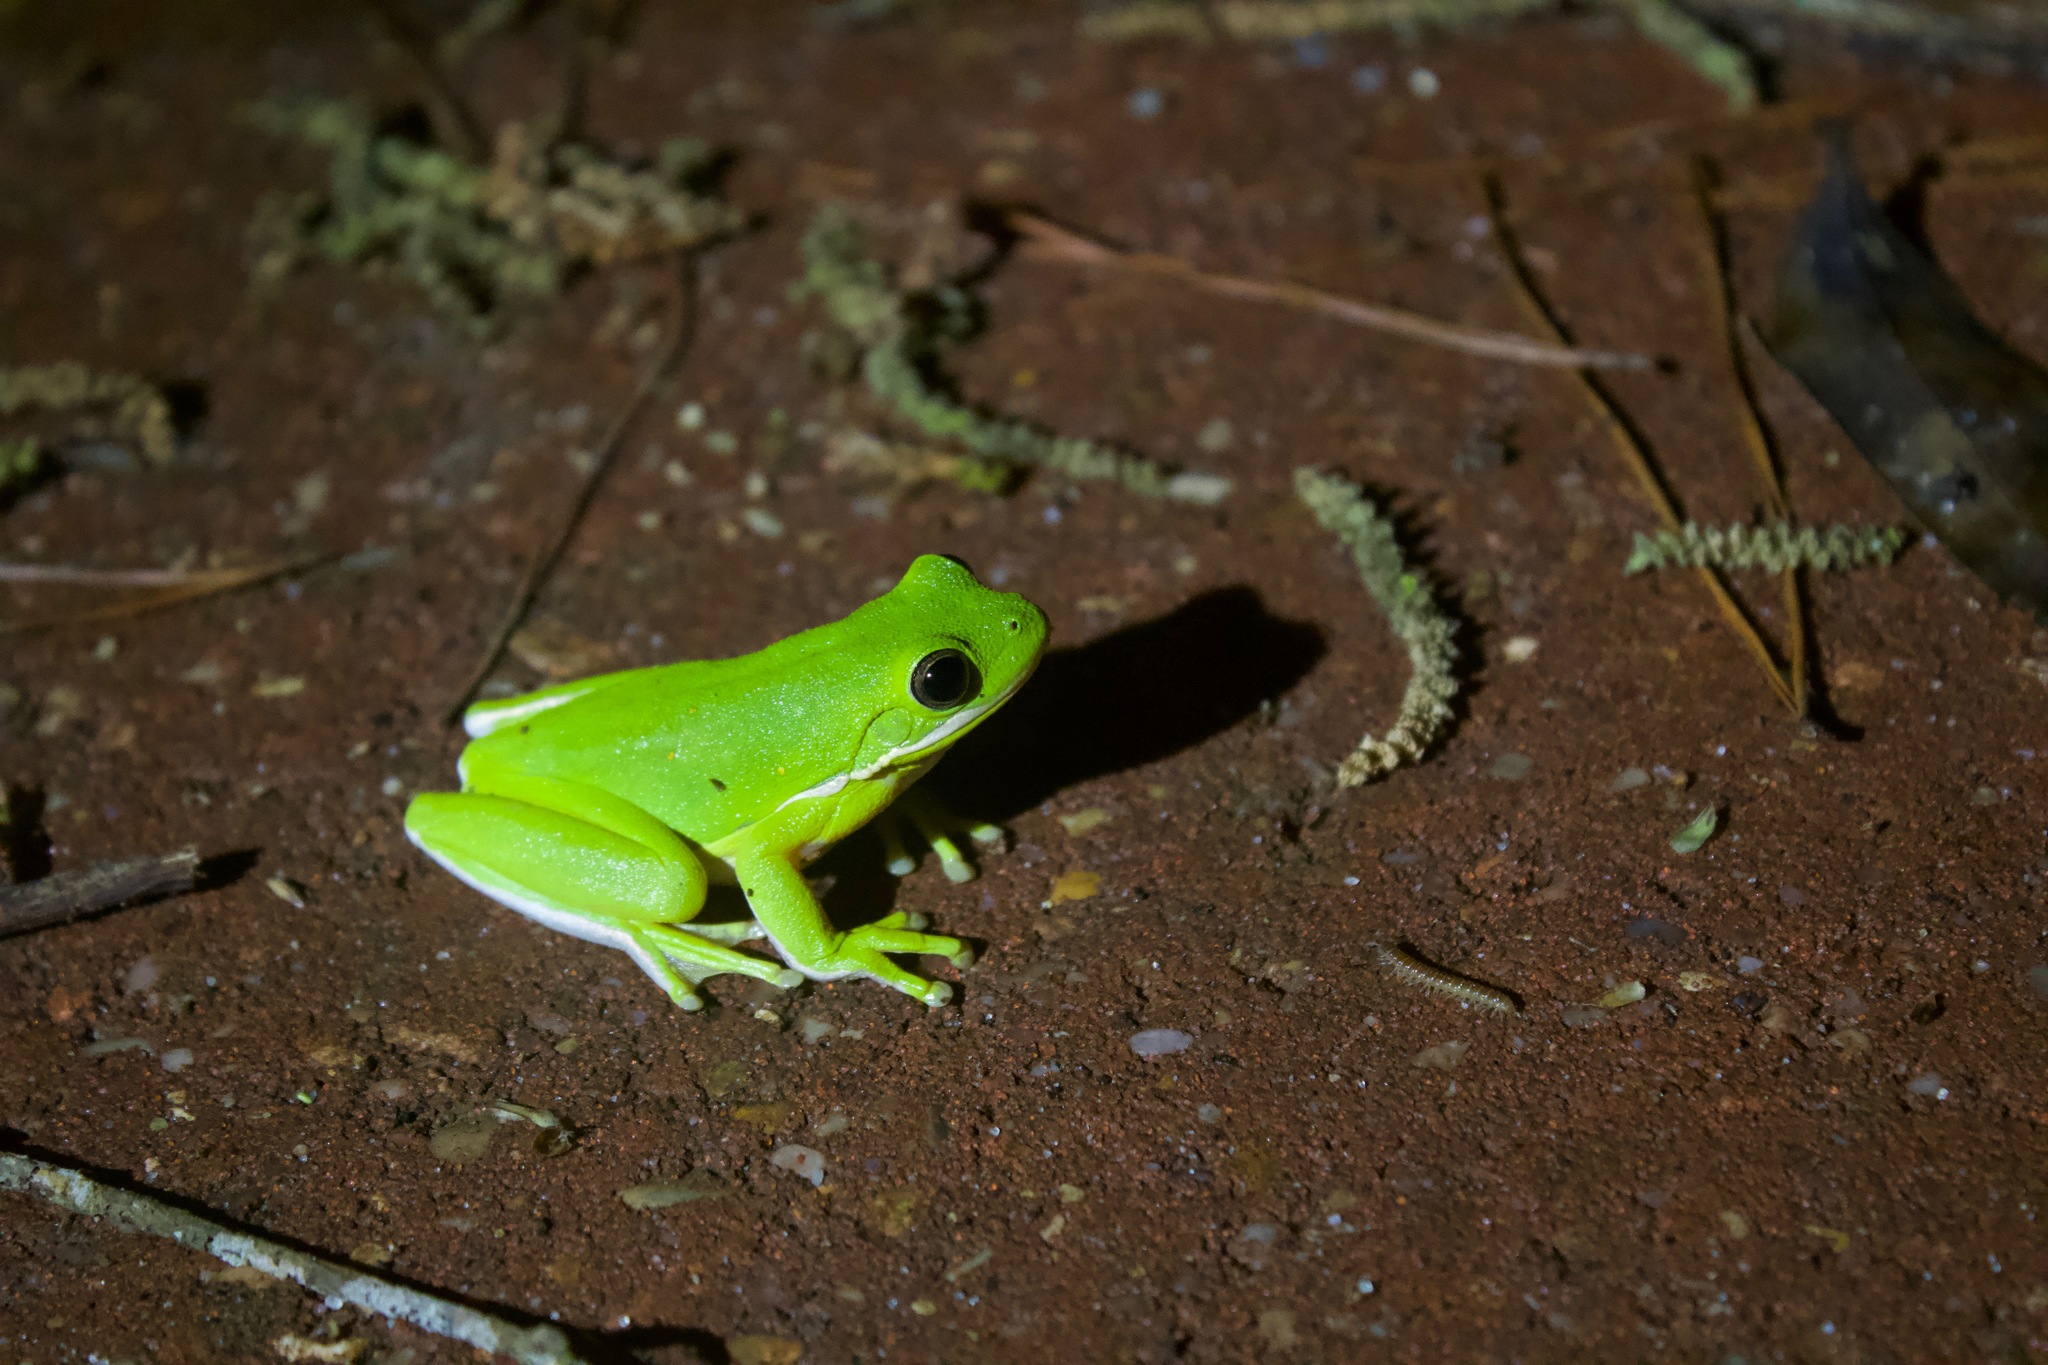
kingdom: Animalia
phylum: Chordata
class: Amphibia
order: Anura
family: Hylidae
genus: Dryophytes
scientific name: Dryophytes cinereus
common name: Green treefrog
